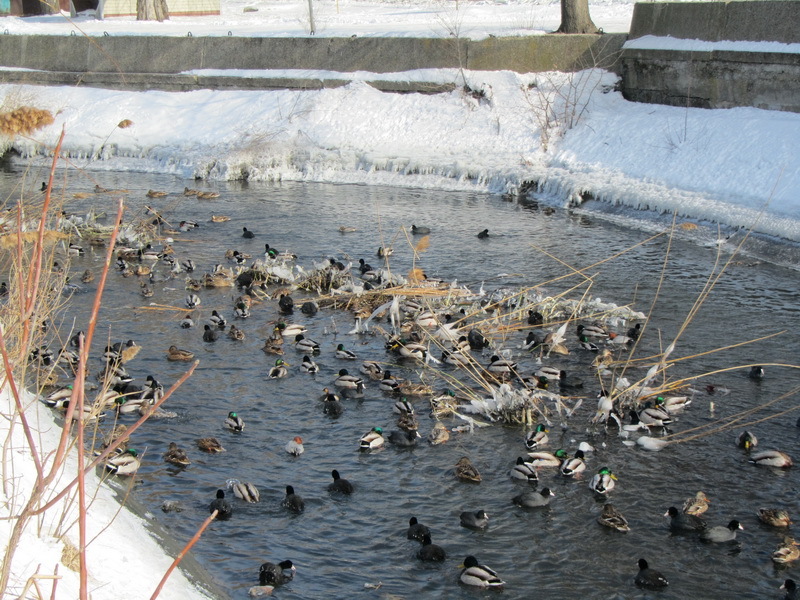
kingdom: Animalia
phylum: Chordata
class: Aves
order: Anseriformes
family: Anatidae
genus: Anas
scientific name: Anas platyrhynchos
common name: Mallard
